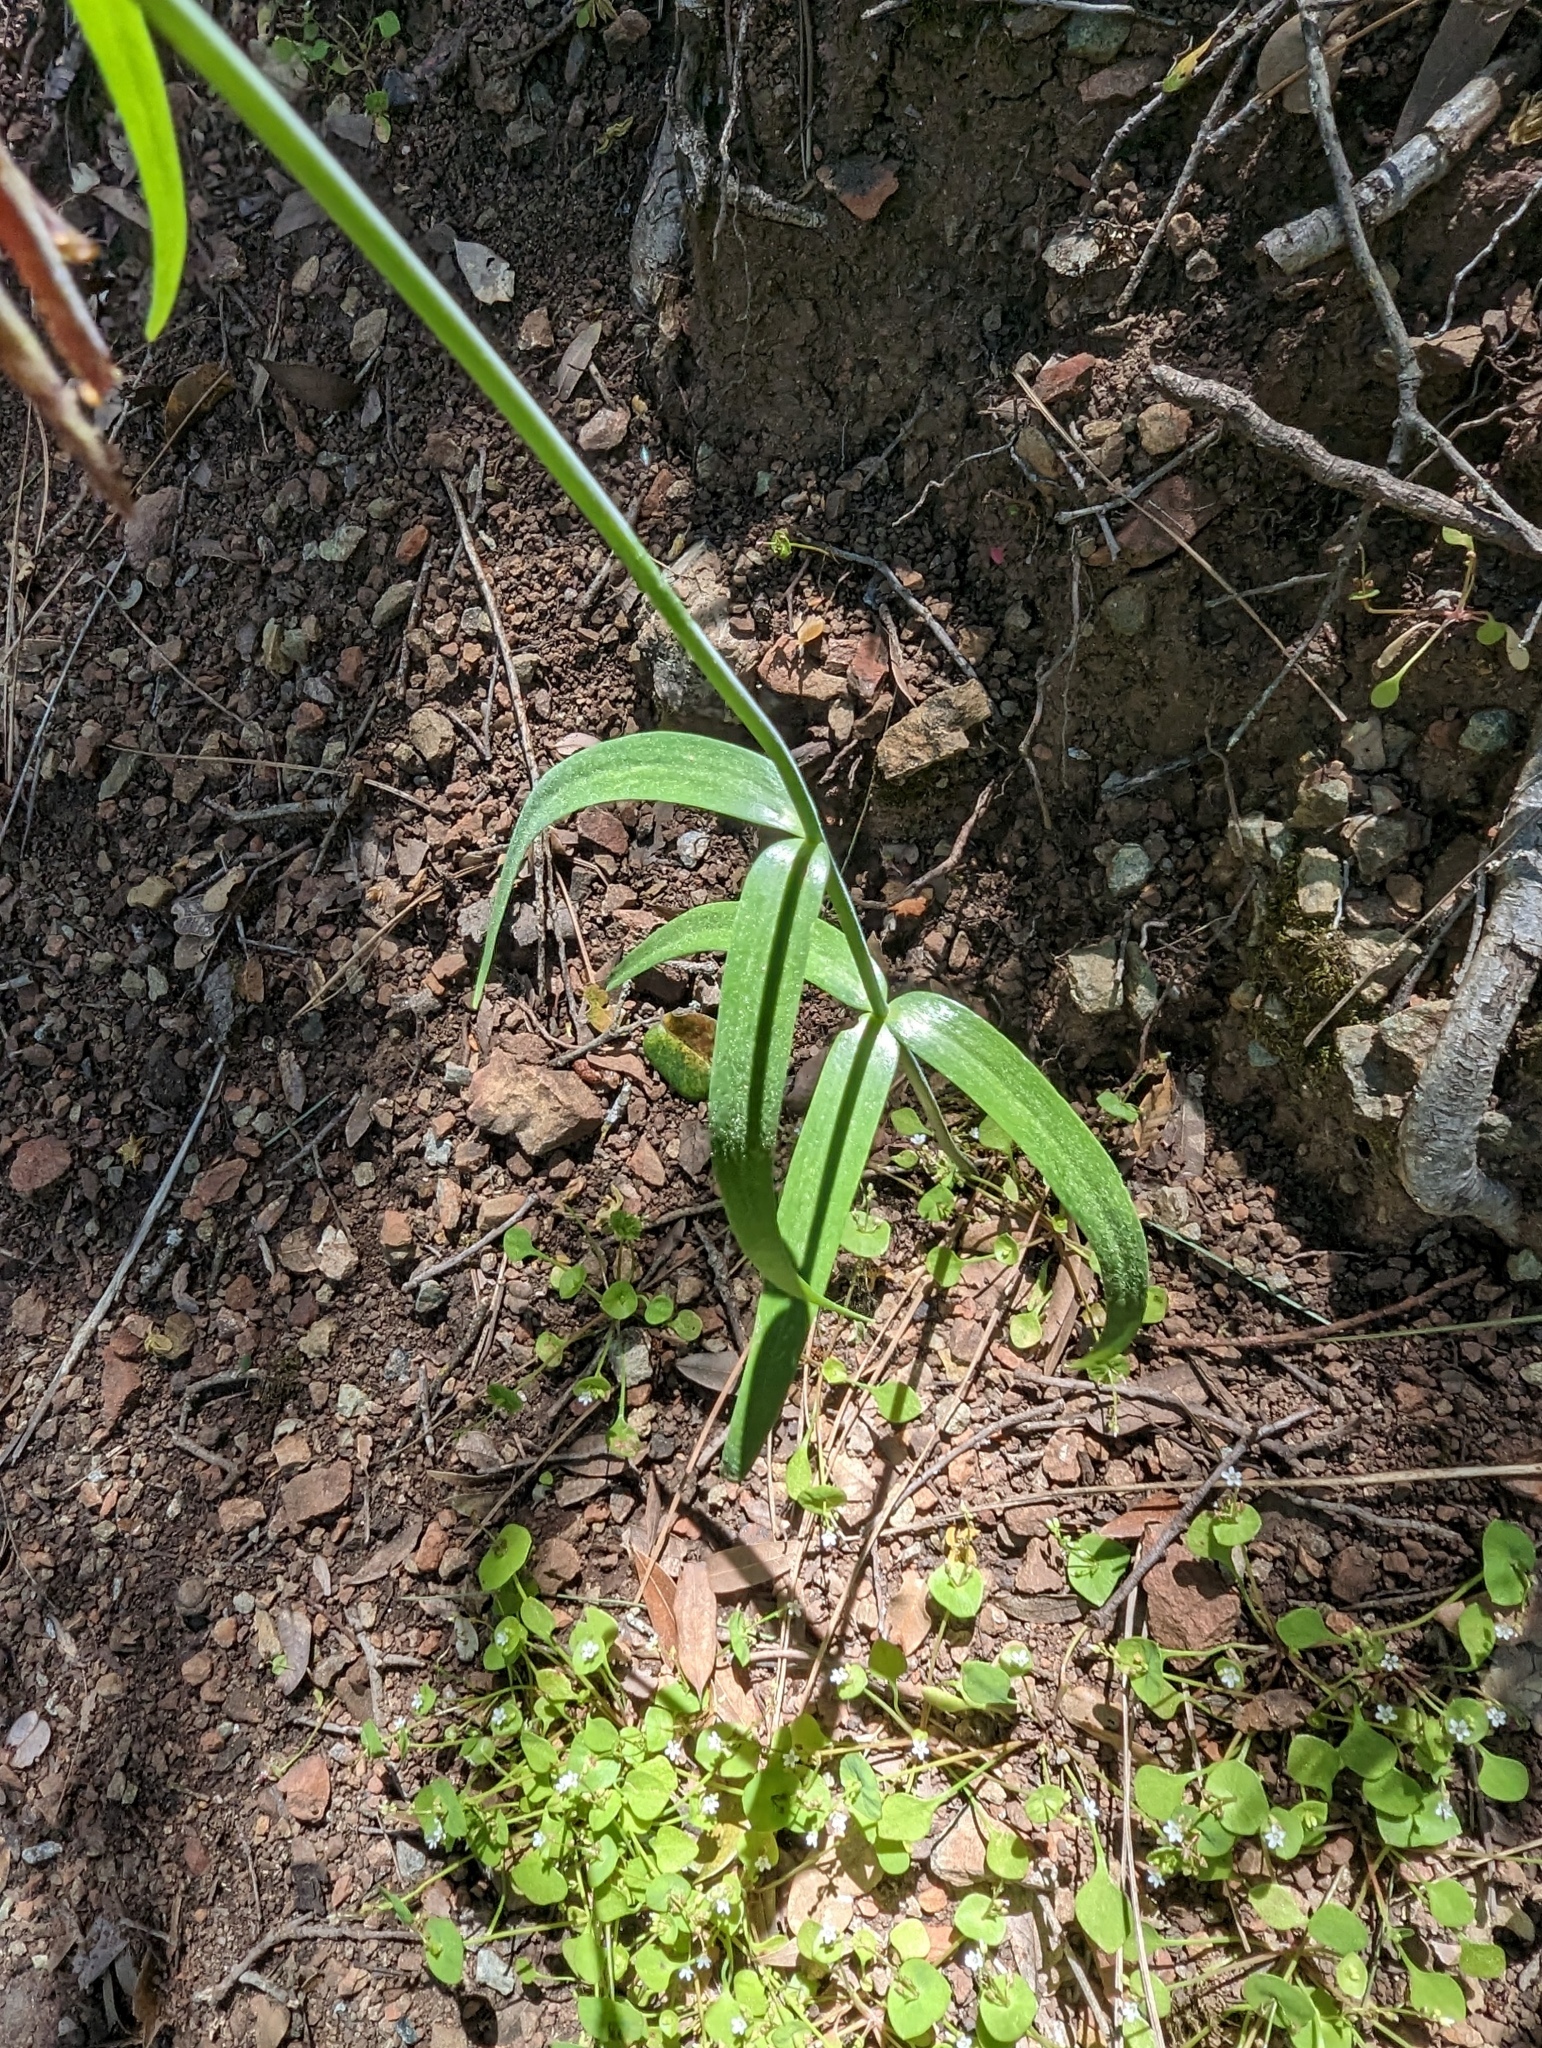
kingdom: Plantae
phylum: Tracheophyta
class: Liliopsida
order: Liliales
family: Liliaceae
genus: Fritillaria
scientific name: Fritillaria affinis
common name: Ojai fritillary
